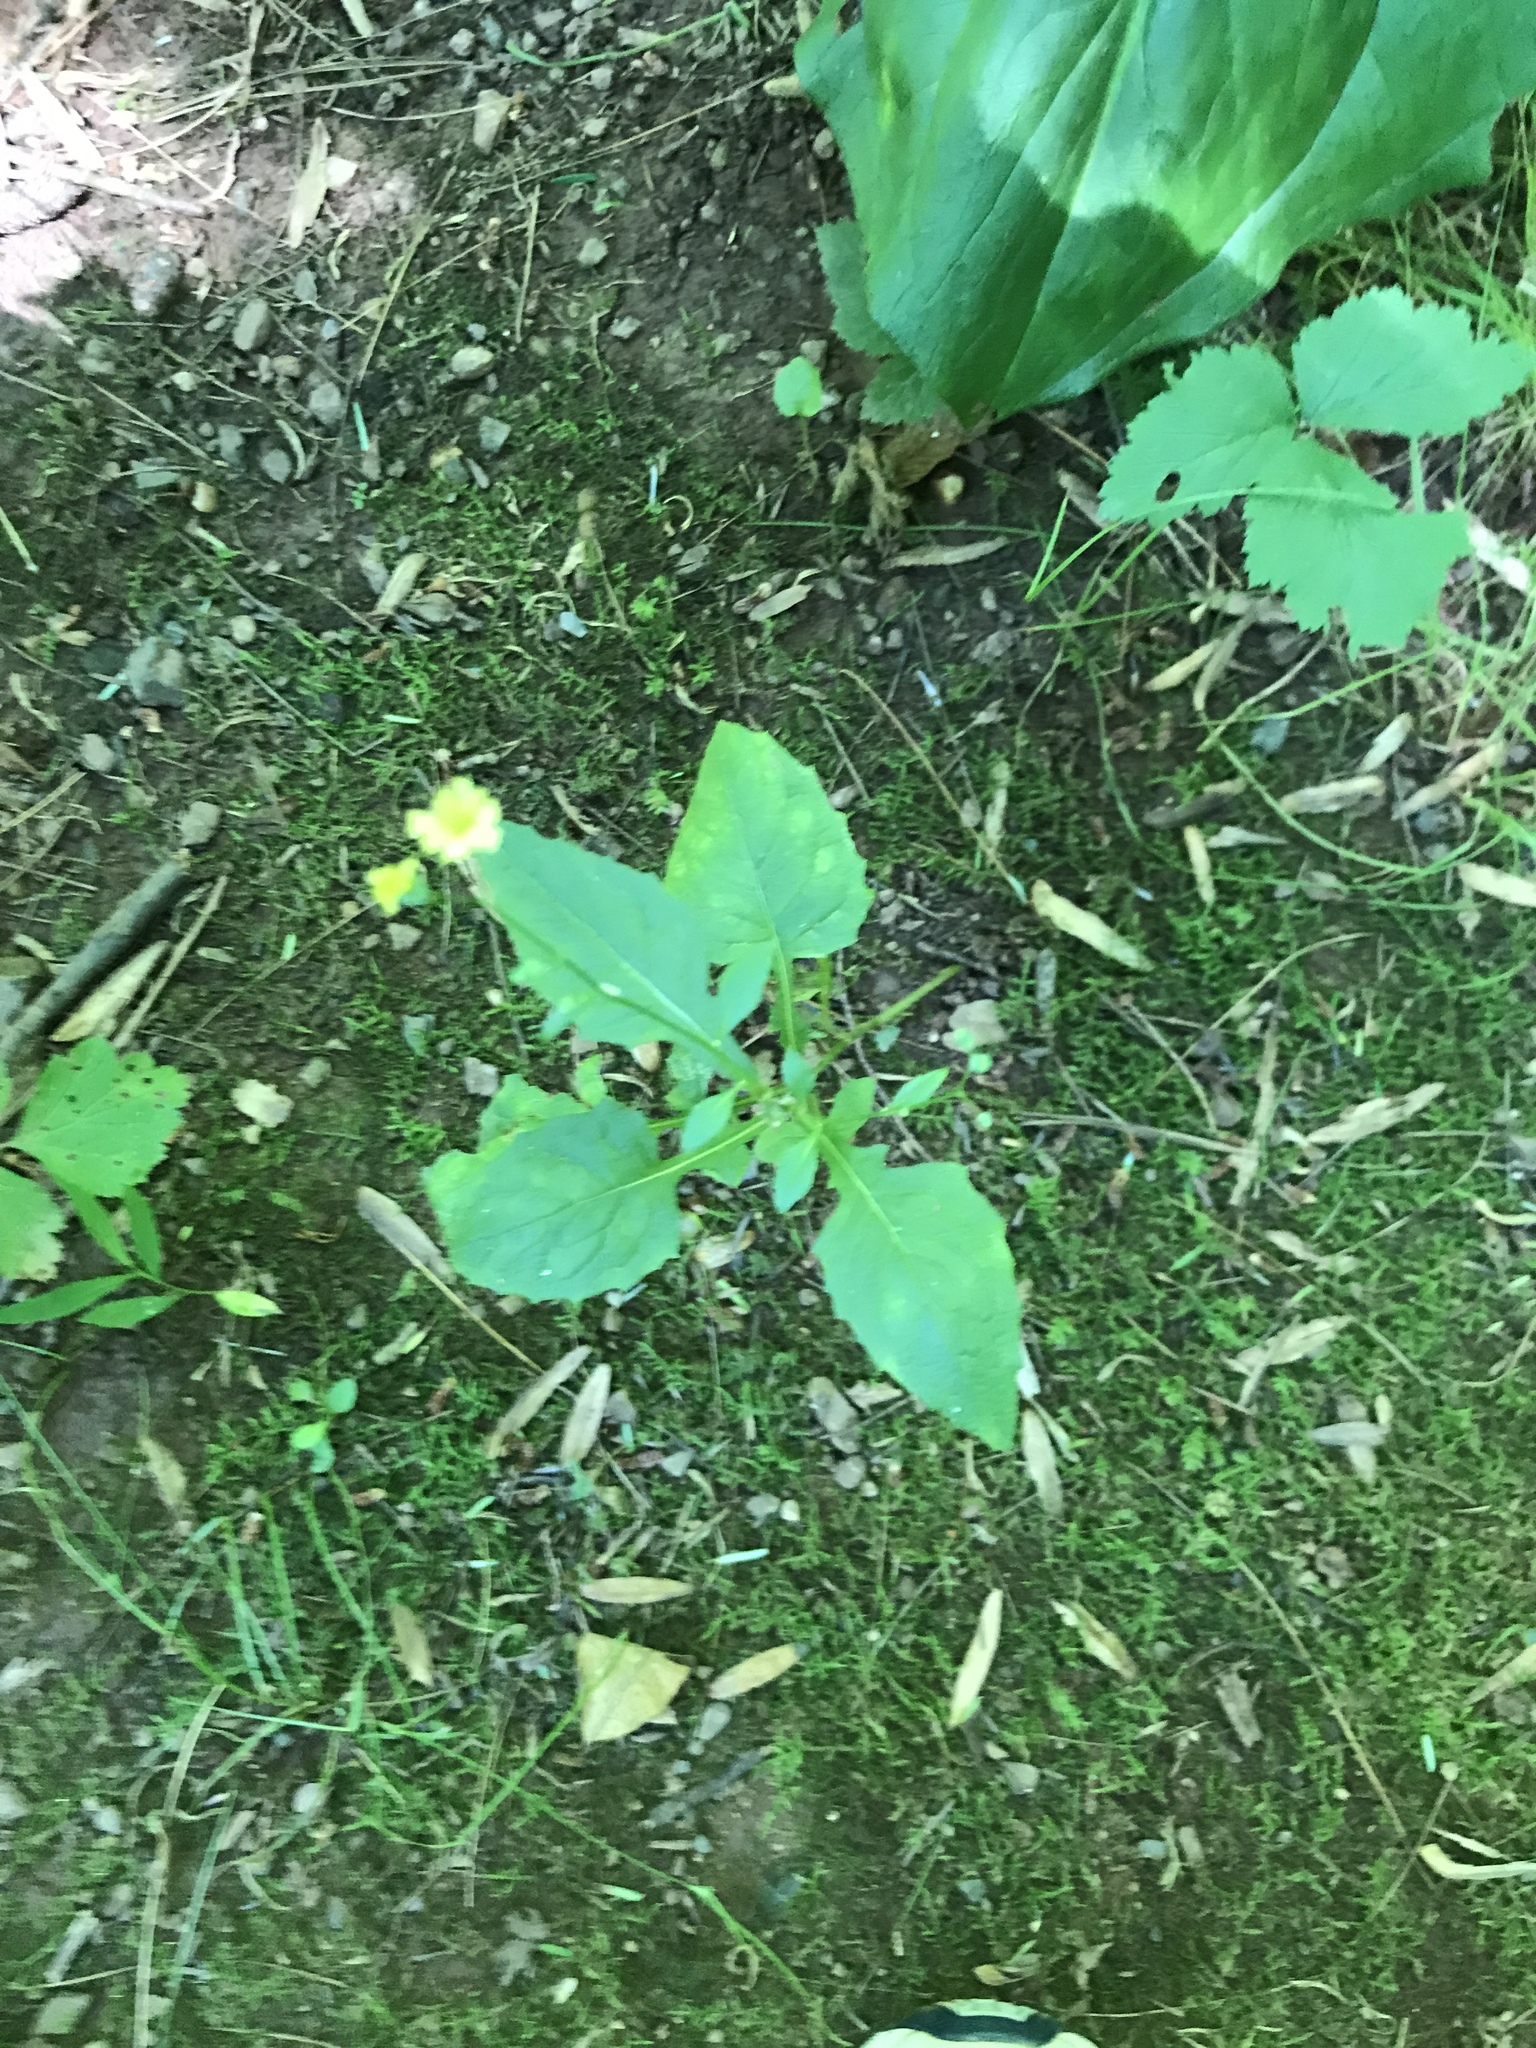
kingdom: Plantae
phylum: Tracheophyta
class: Magnoliopsida
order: Asterales
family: Asteraceae
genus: Lapsana
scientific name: Lapsana communis
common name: Nipplewort
